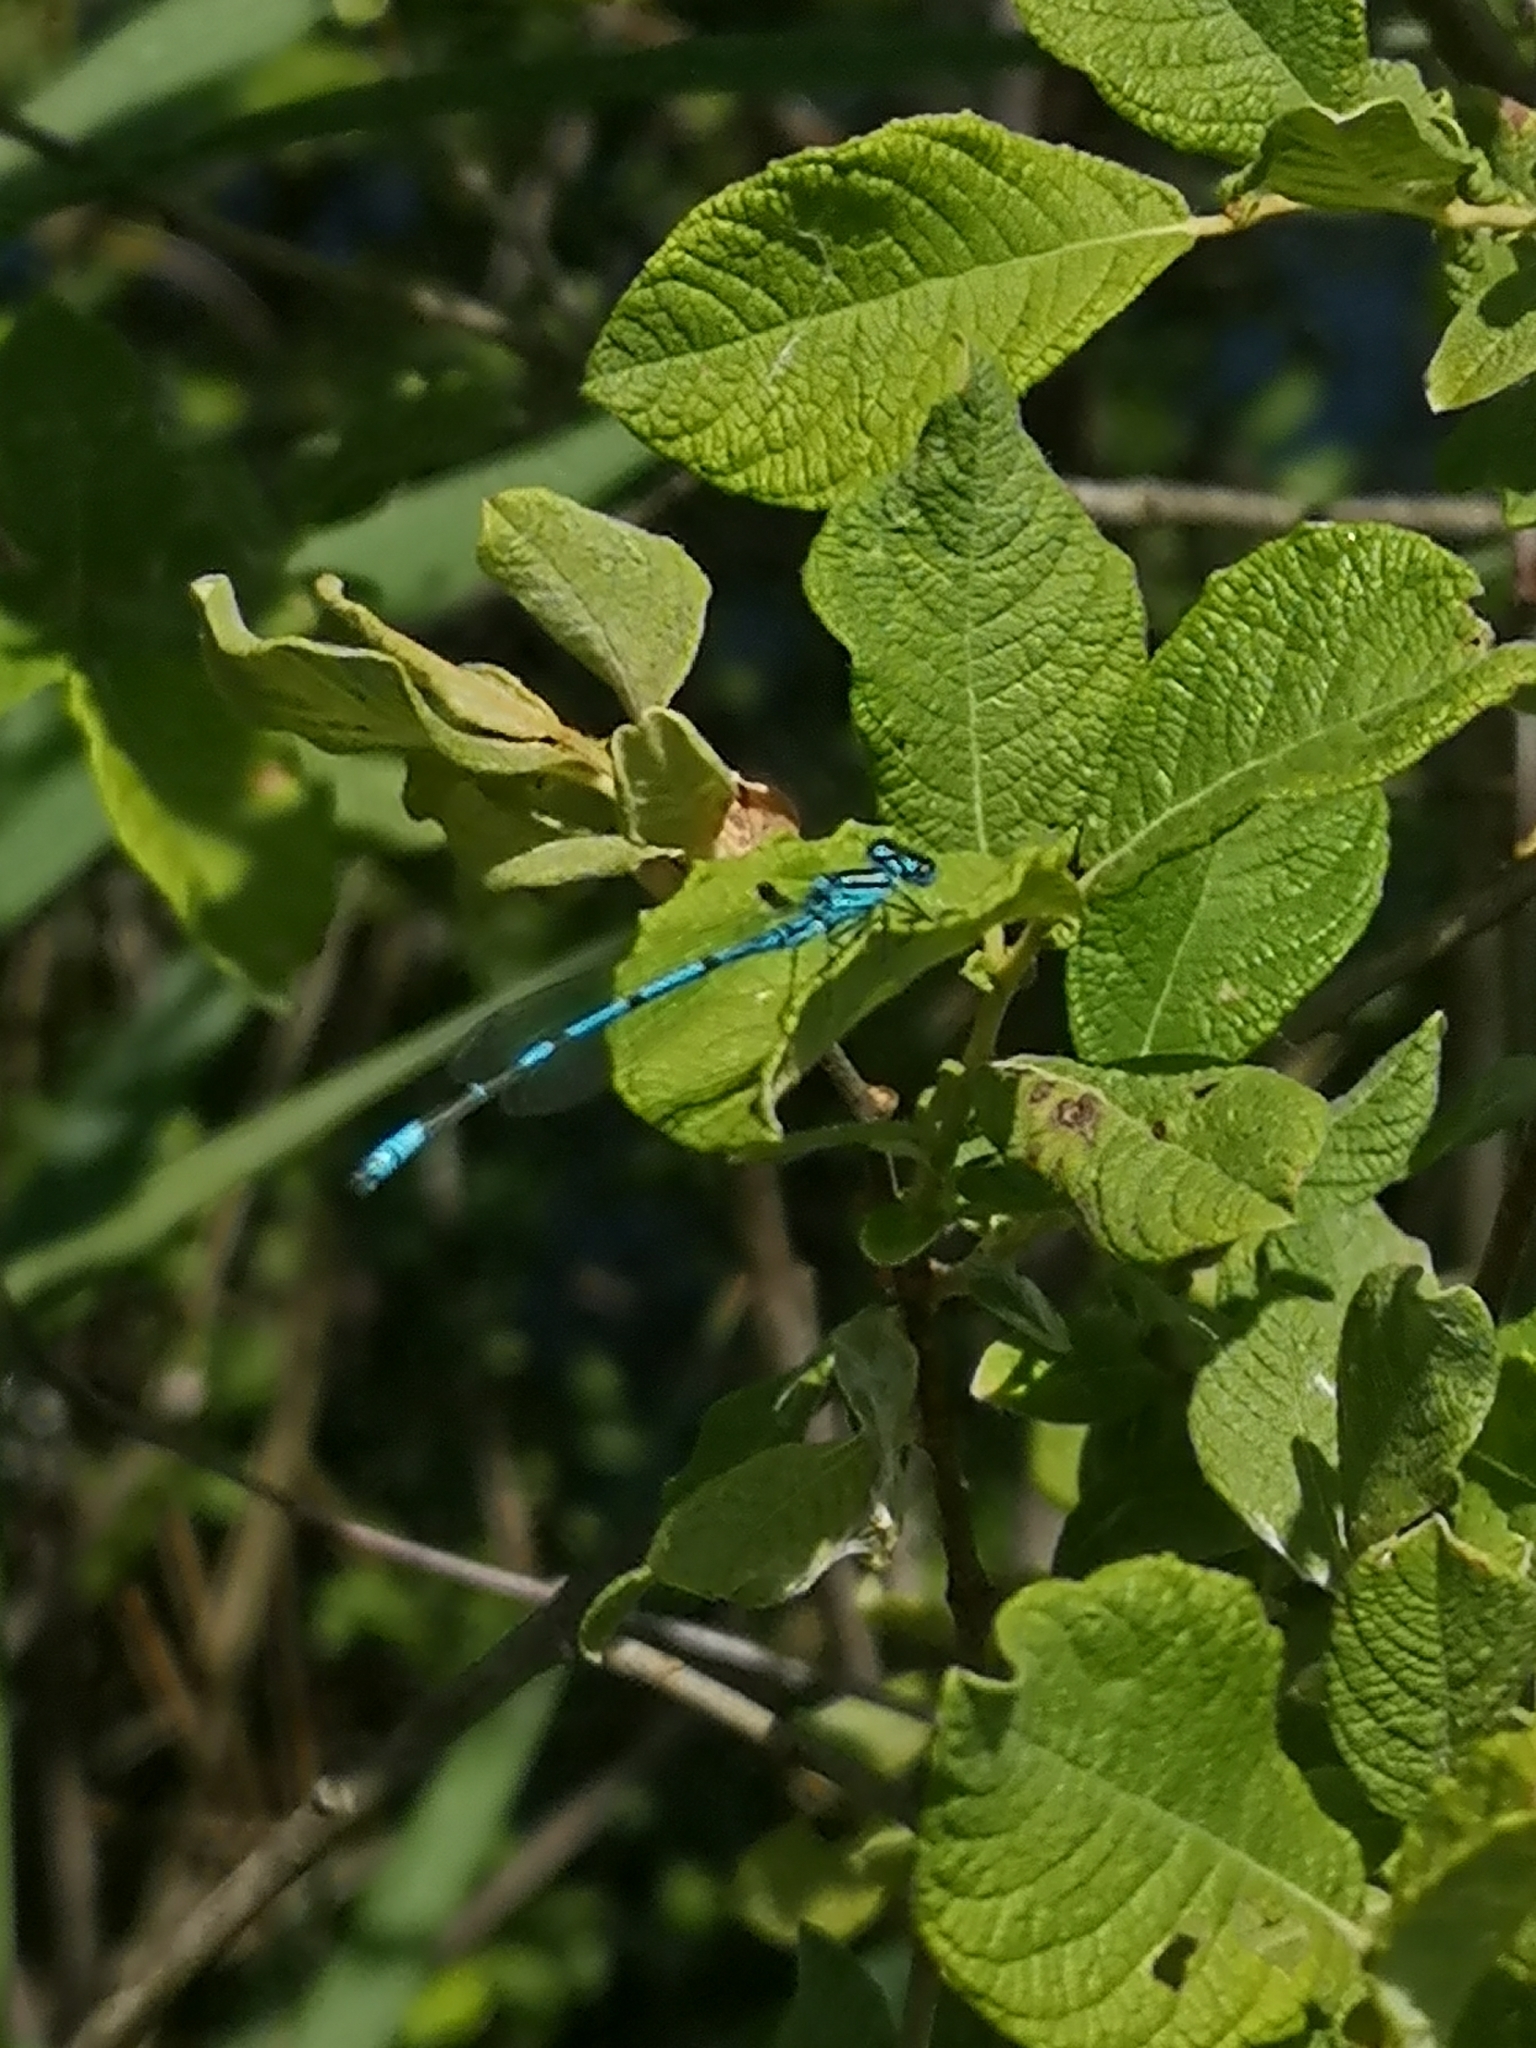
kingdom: Animalia
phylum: Arthropoda
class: Insecta
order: Odonata
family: Coenagrionidae
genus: Coenagrion
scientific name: Coenagrion puella
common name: Azure damselfly
